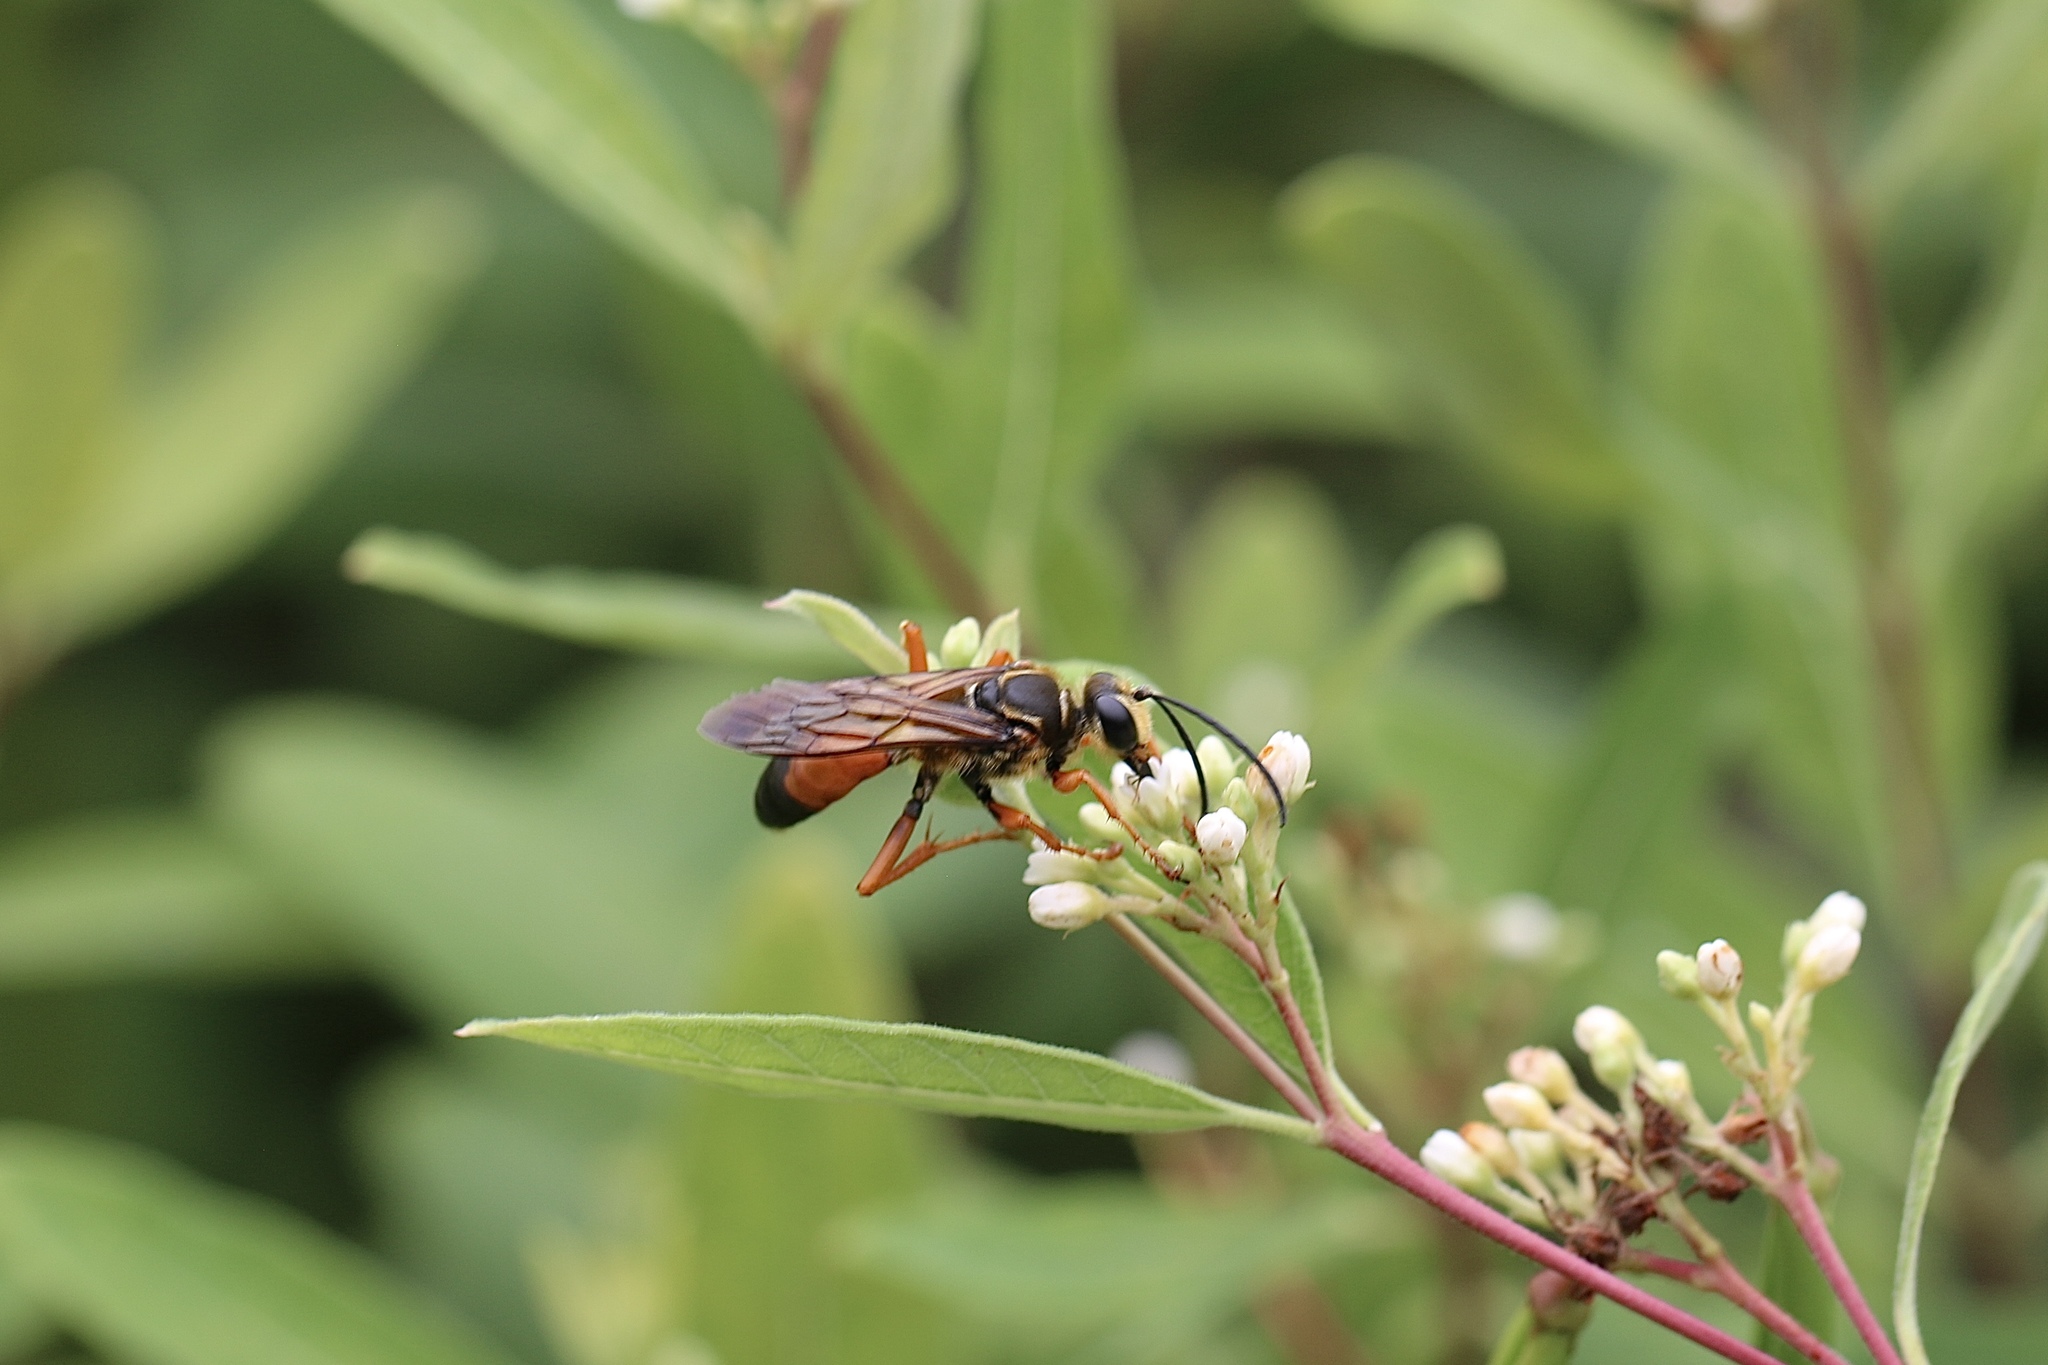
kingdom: Animalia
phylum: Arthropoda
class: Insecta
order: Hymenoptera
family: Sphecidae
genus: Sphex
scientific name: Sphex ichneumoneus
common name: Great golden digger wasp
